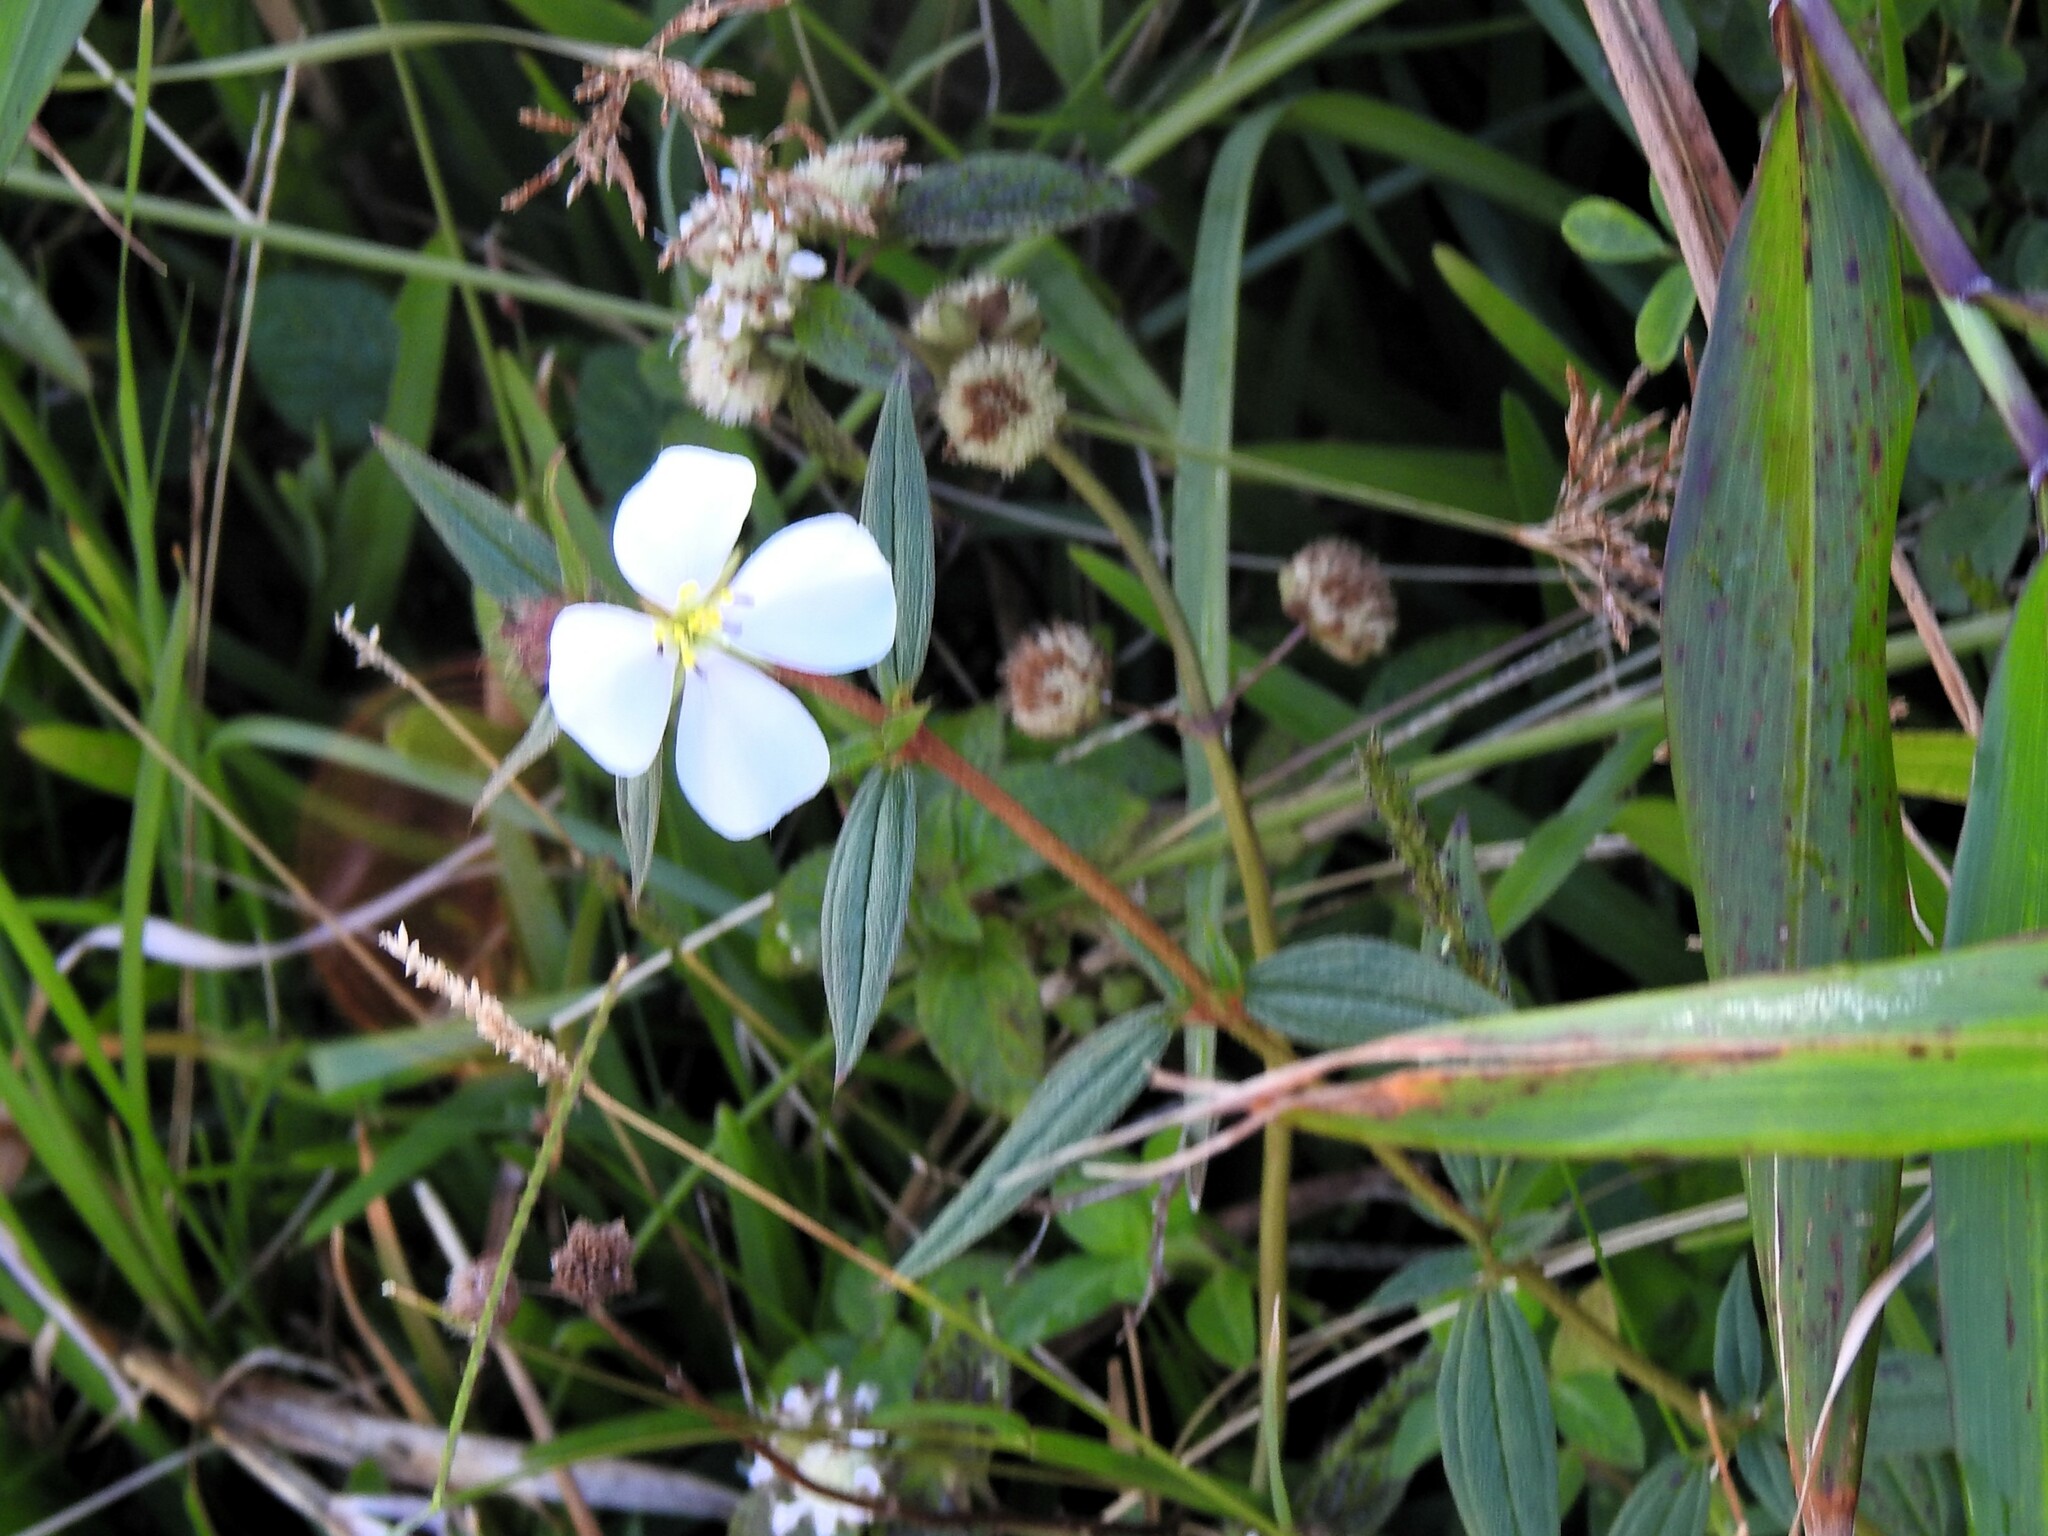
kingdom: Plantae
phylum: Tracheophyta
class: Magnoliopsida
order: Myrtales
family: Melastomataceae
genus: Pterolepis
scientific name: Pterolepis glomerata
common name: False meadowbeauty
